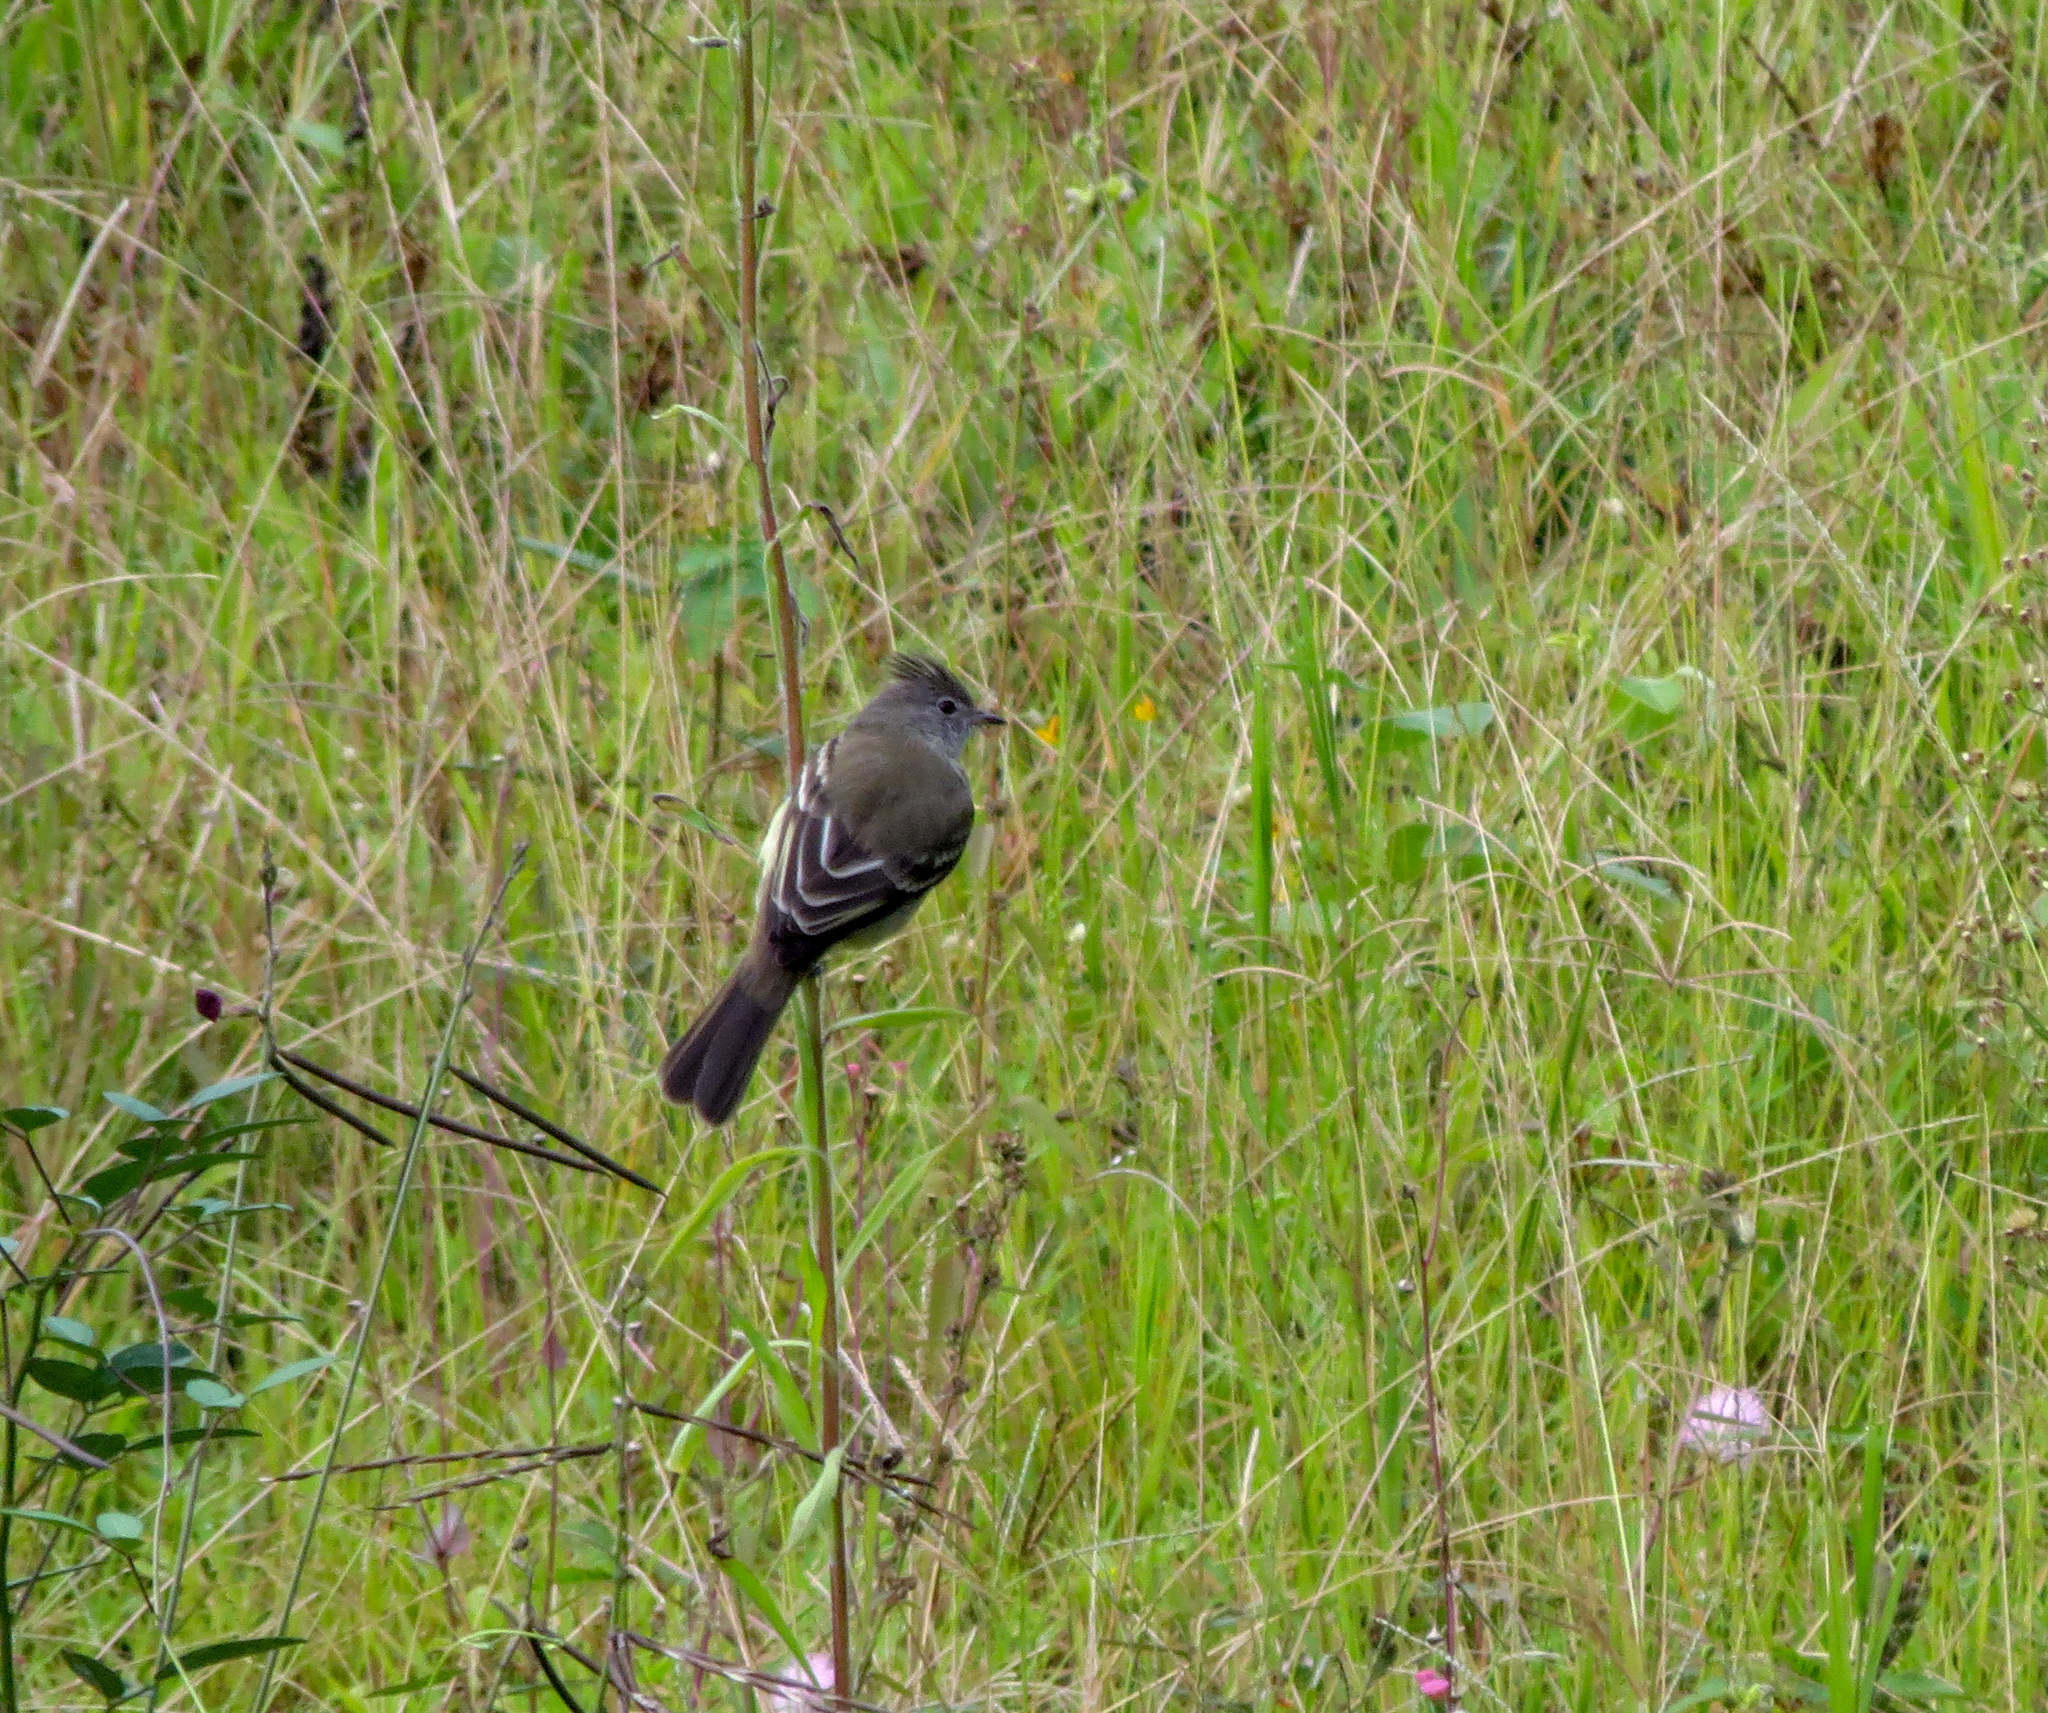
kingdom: Animalia
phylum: Chordata
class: Aves
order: Passeriformes
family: Tyrannidae
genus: Elaenia
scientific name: Elaenia flavogaster
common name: Yellow-bellied elaenia
